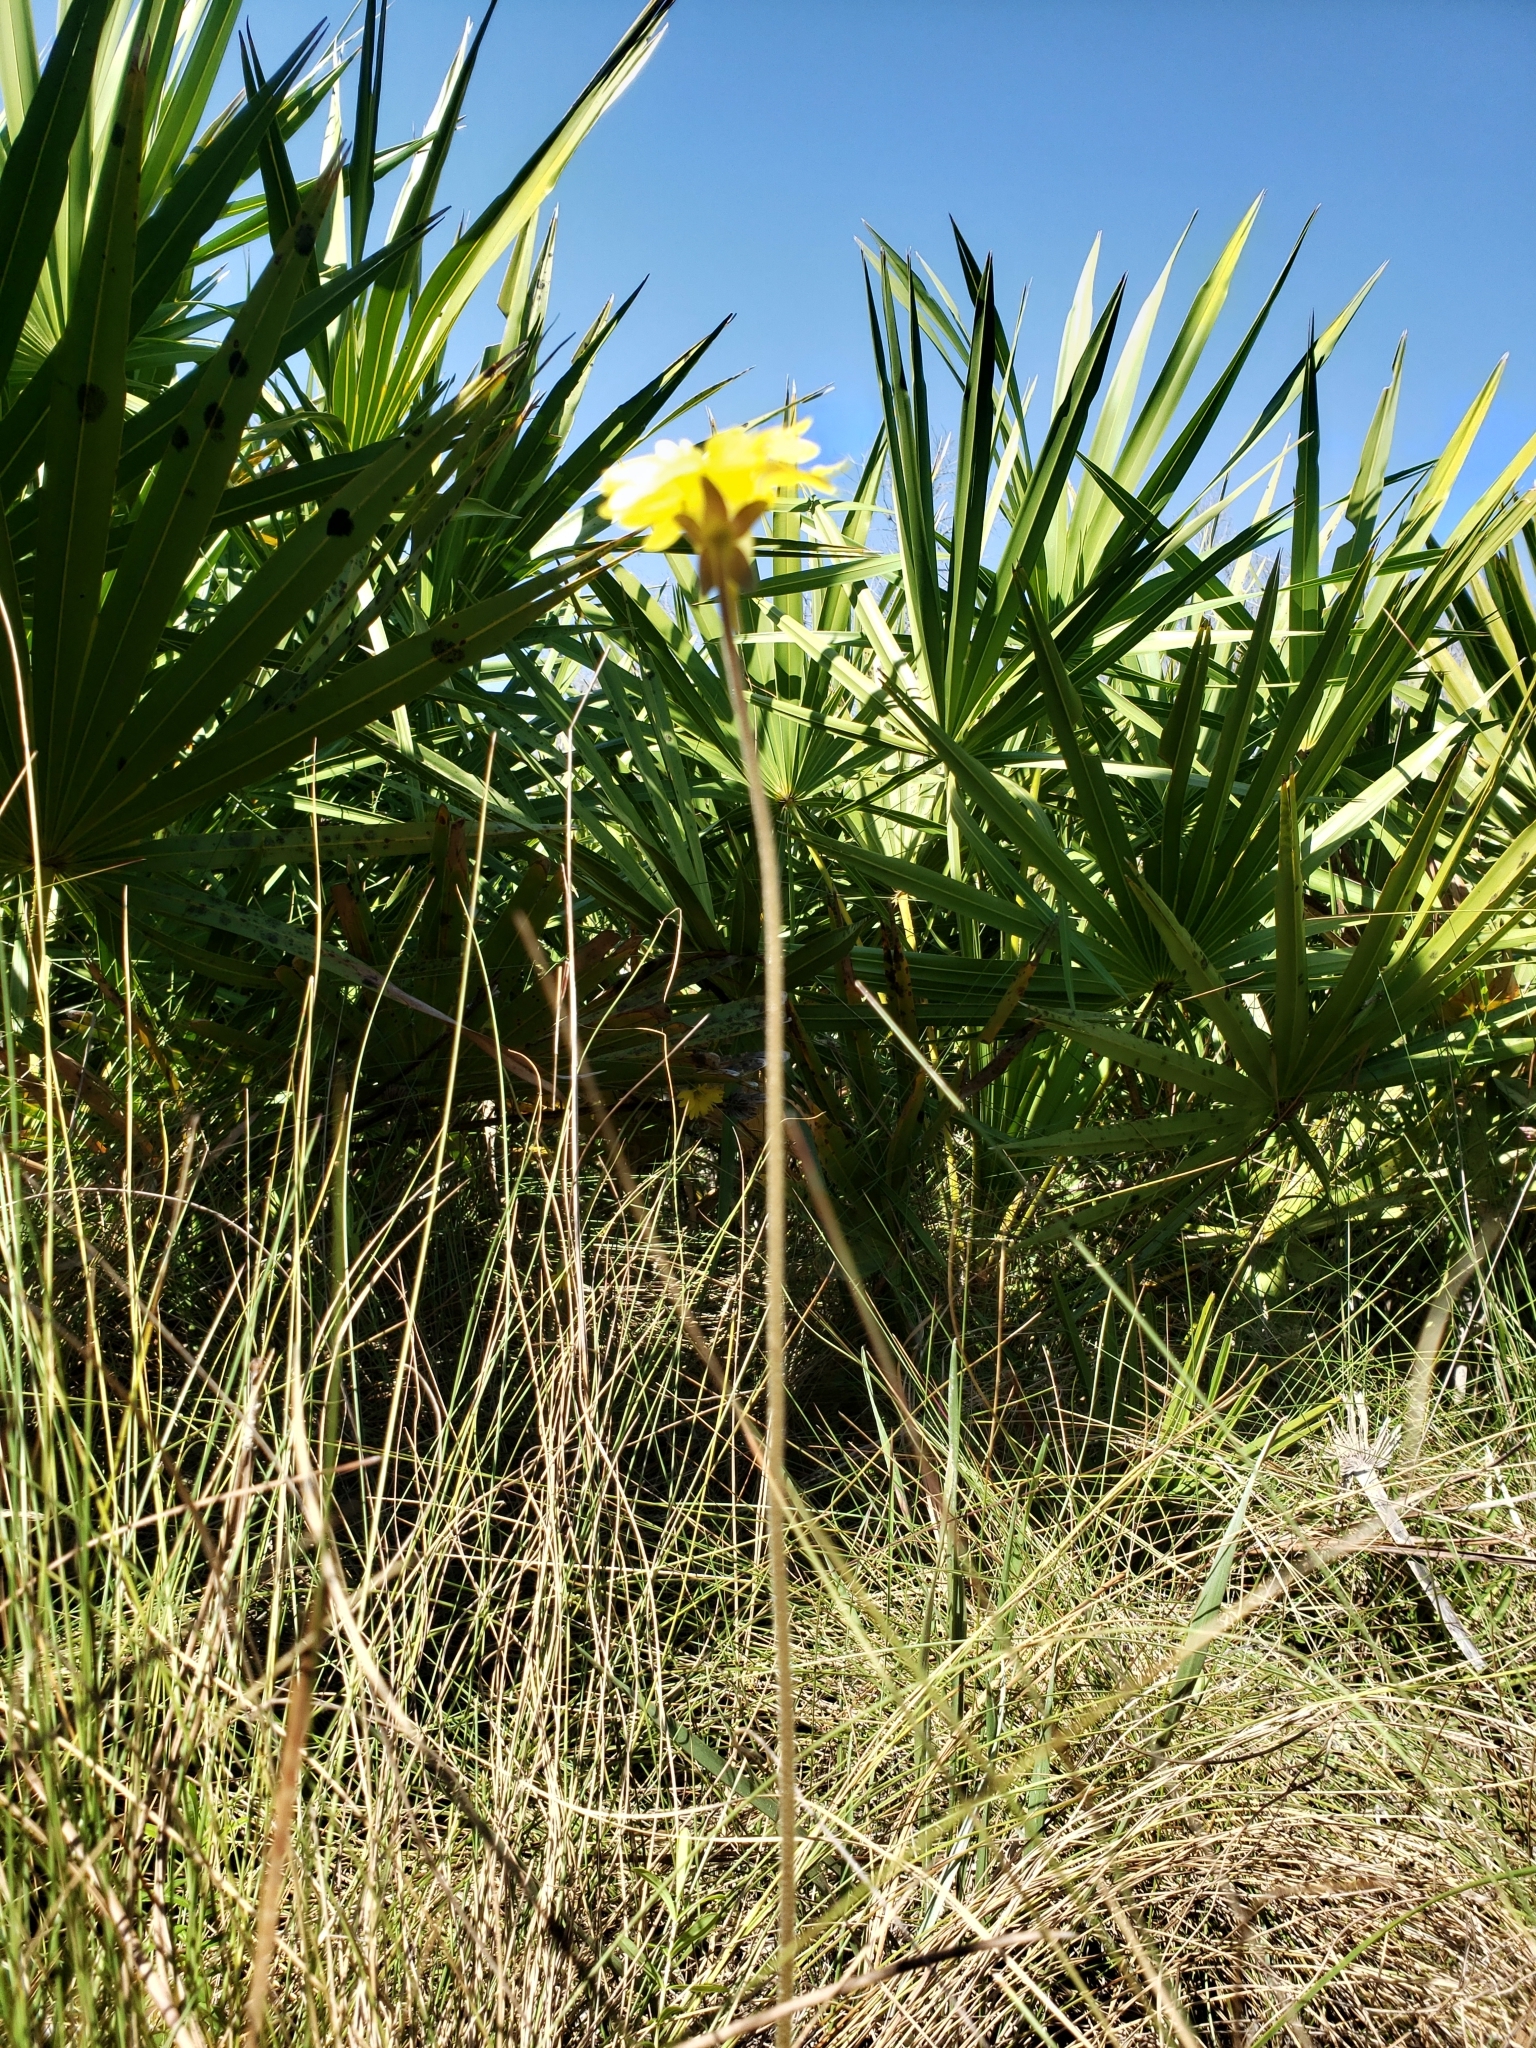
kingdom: Plantae
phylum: Tracheophyta
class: Magnoliopsida
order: Lamiales
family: Lentibulariaceae
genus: Pinguicula
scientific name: Pinguicula lutea
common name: Yellow butterwort
